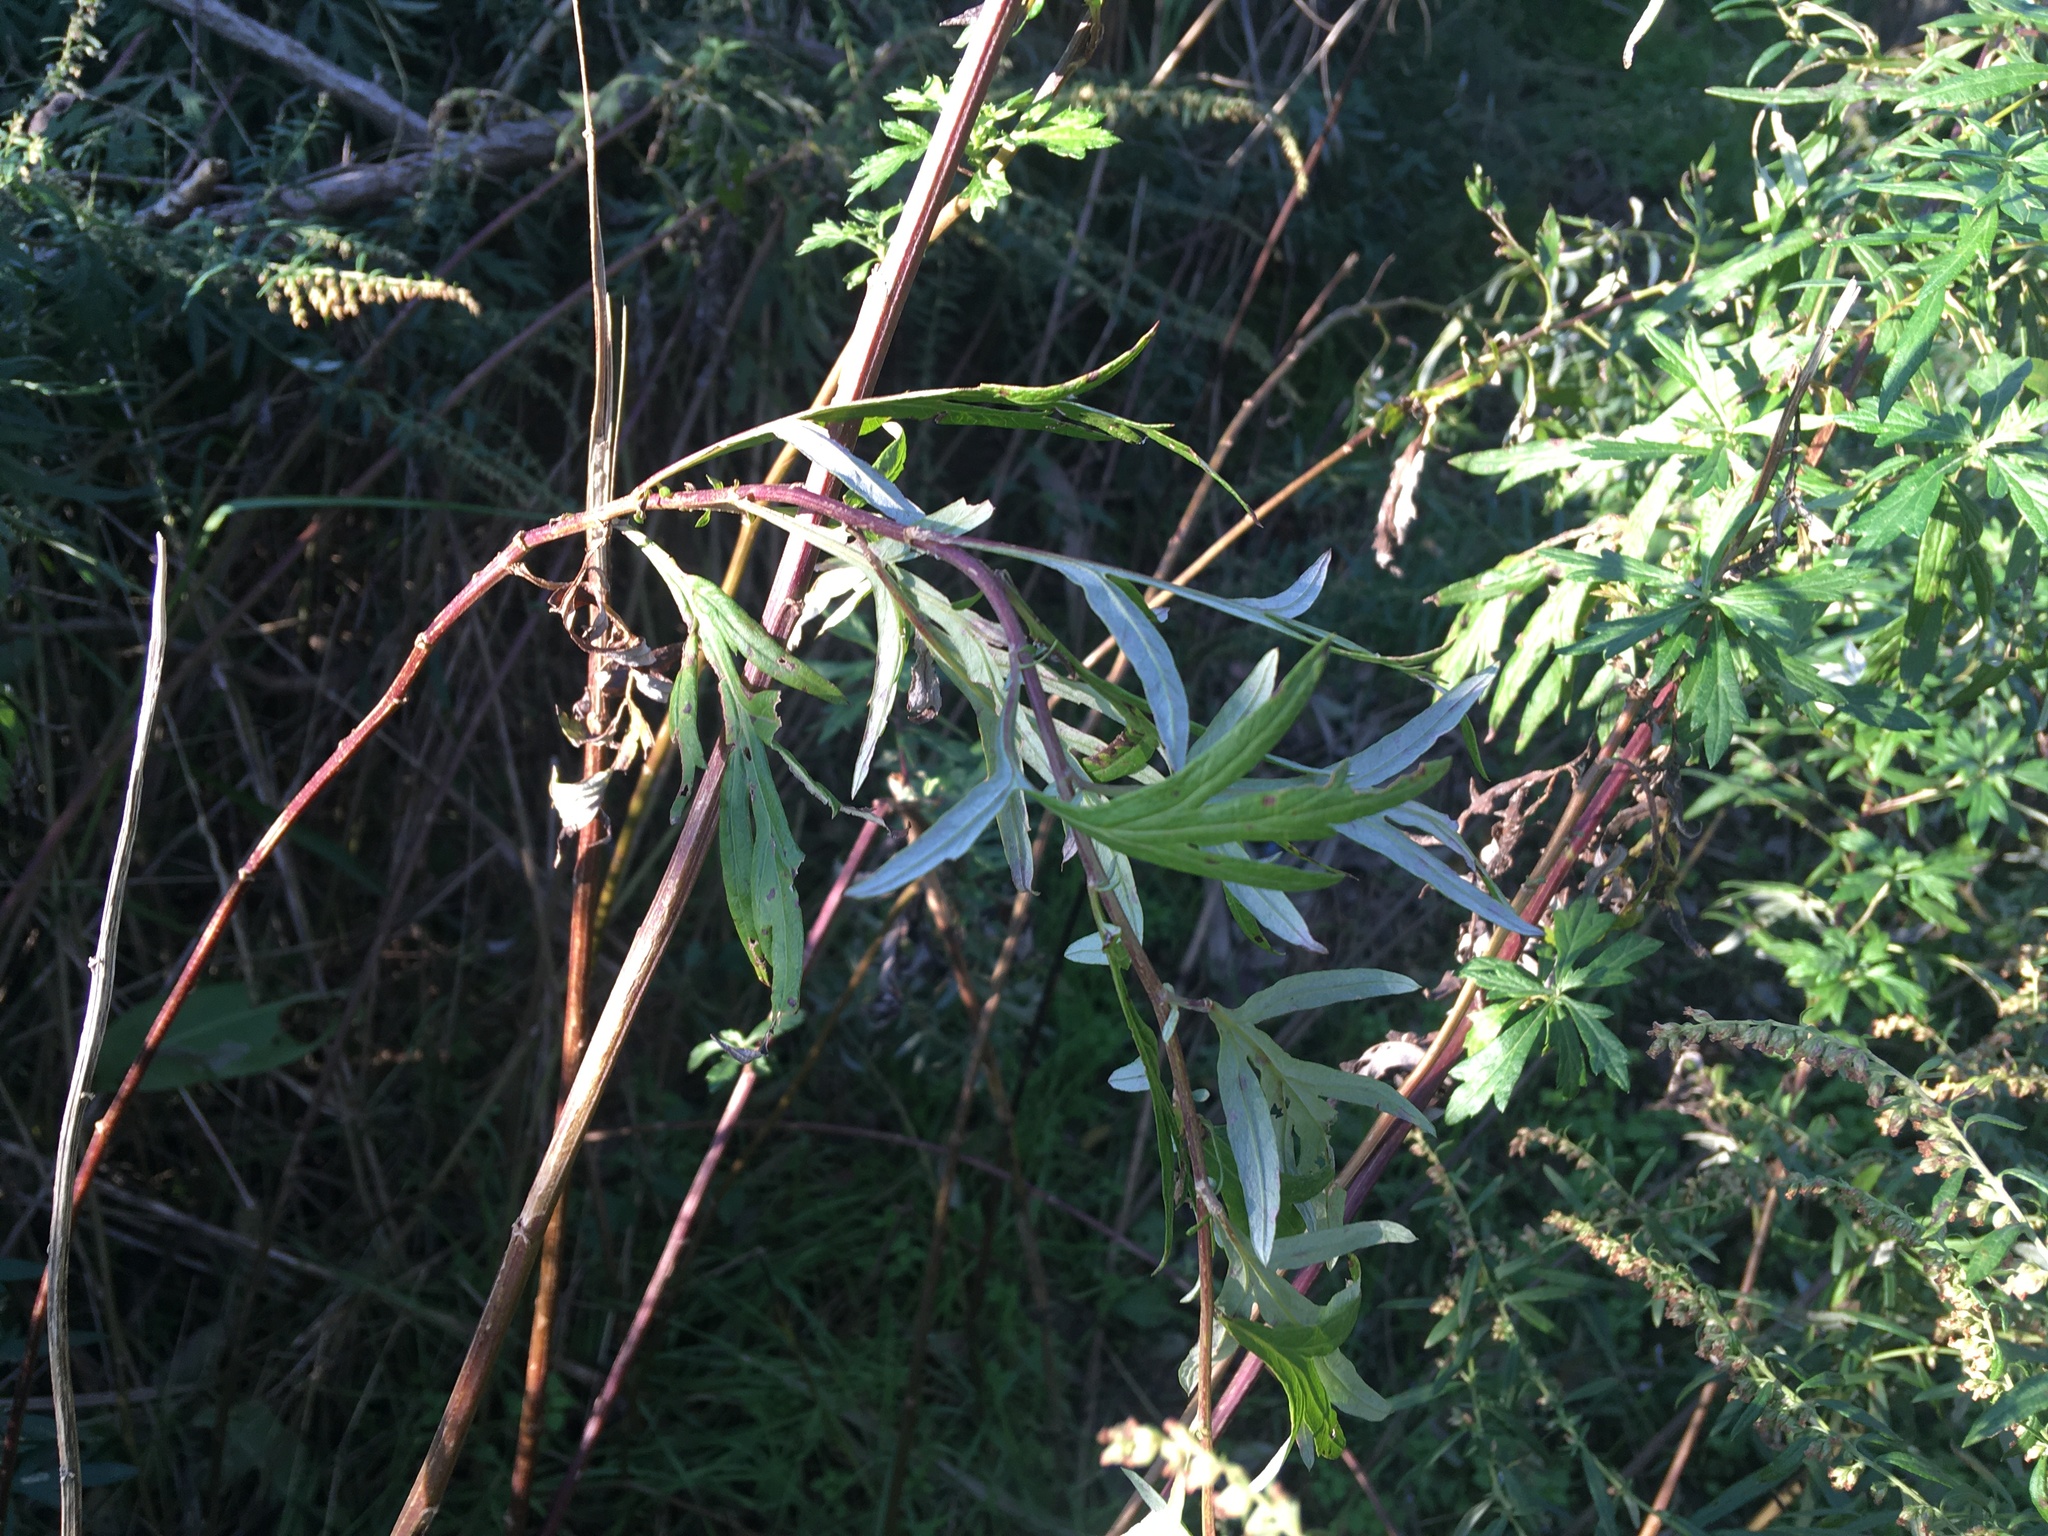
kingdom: Plantae
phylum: Tracheophyta
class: Magnoliopsida
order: Asterales
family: Asteraceae
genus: Artemisia
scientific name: Artemisia vulgaris
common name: Mugwort
